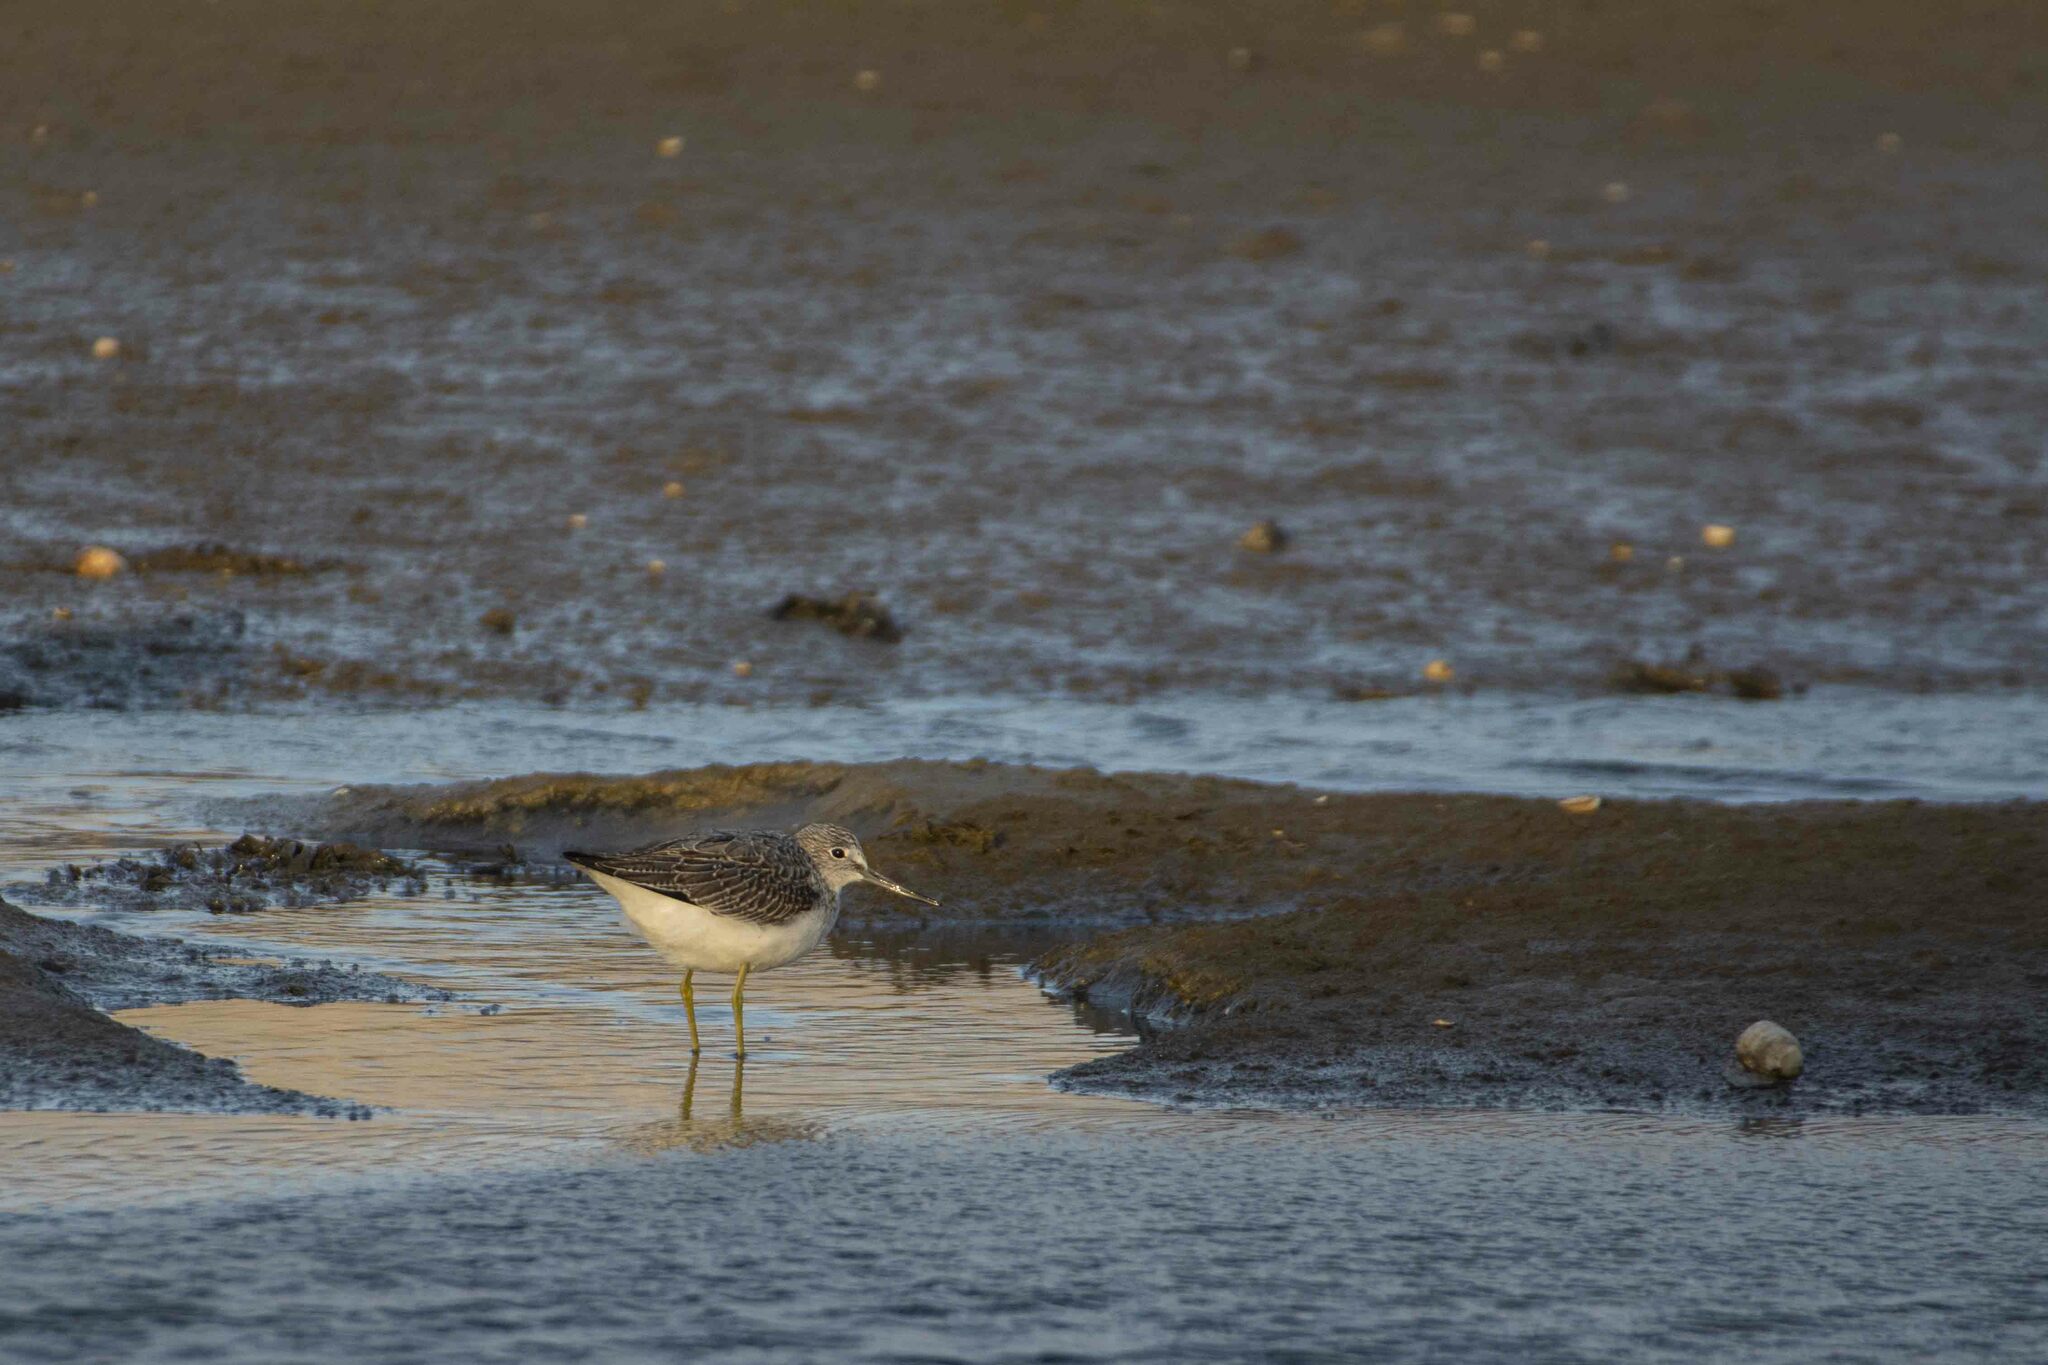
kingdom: Animalia
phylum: Chordata
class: Aves
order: Charadriiformes
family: Scolopacidae
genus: Tringa
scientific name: Tringa nebularia
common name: Common greenshank
